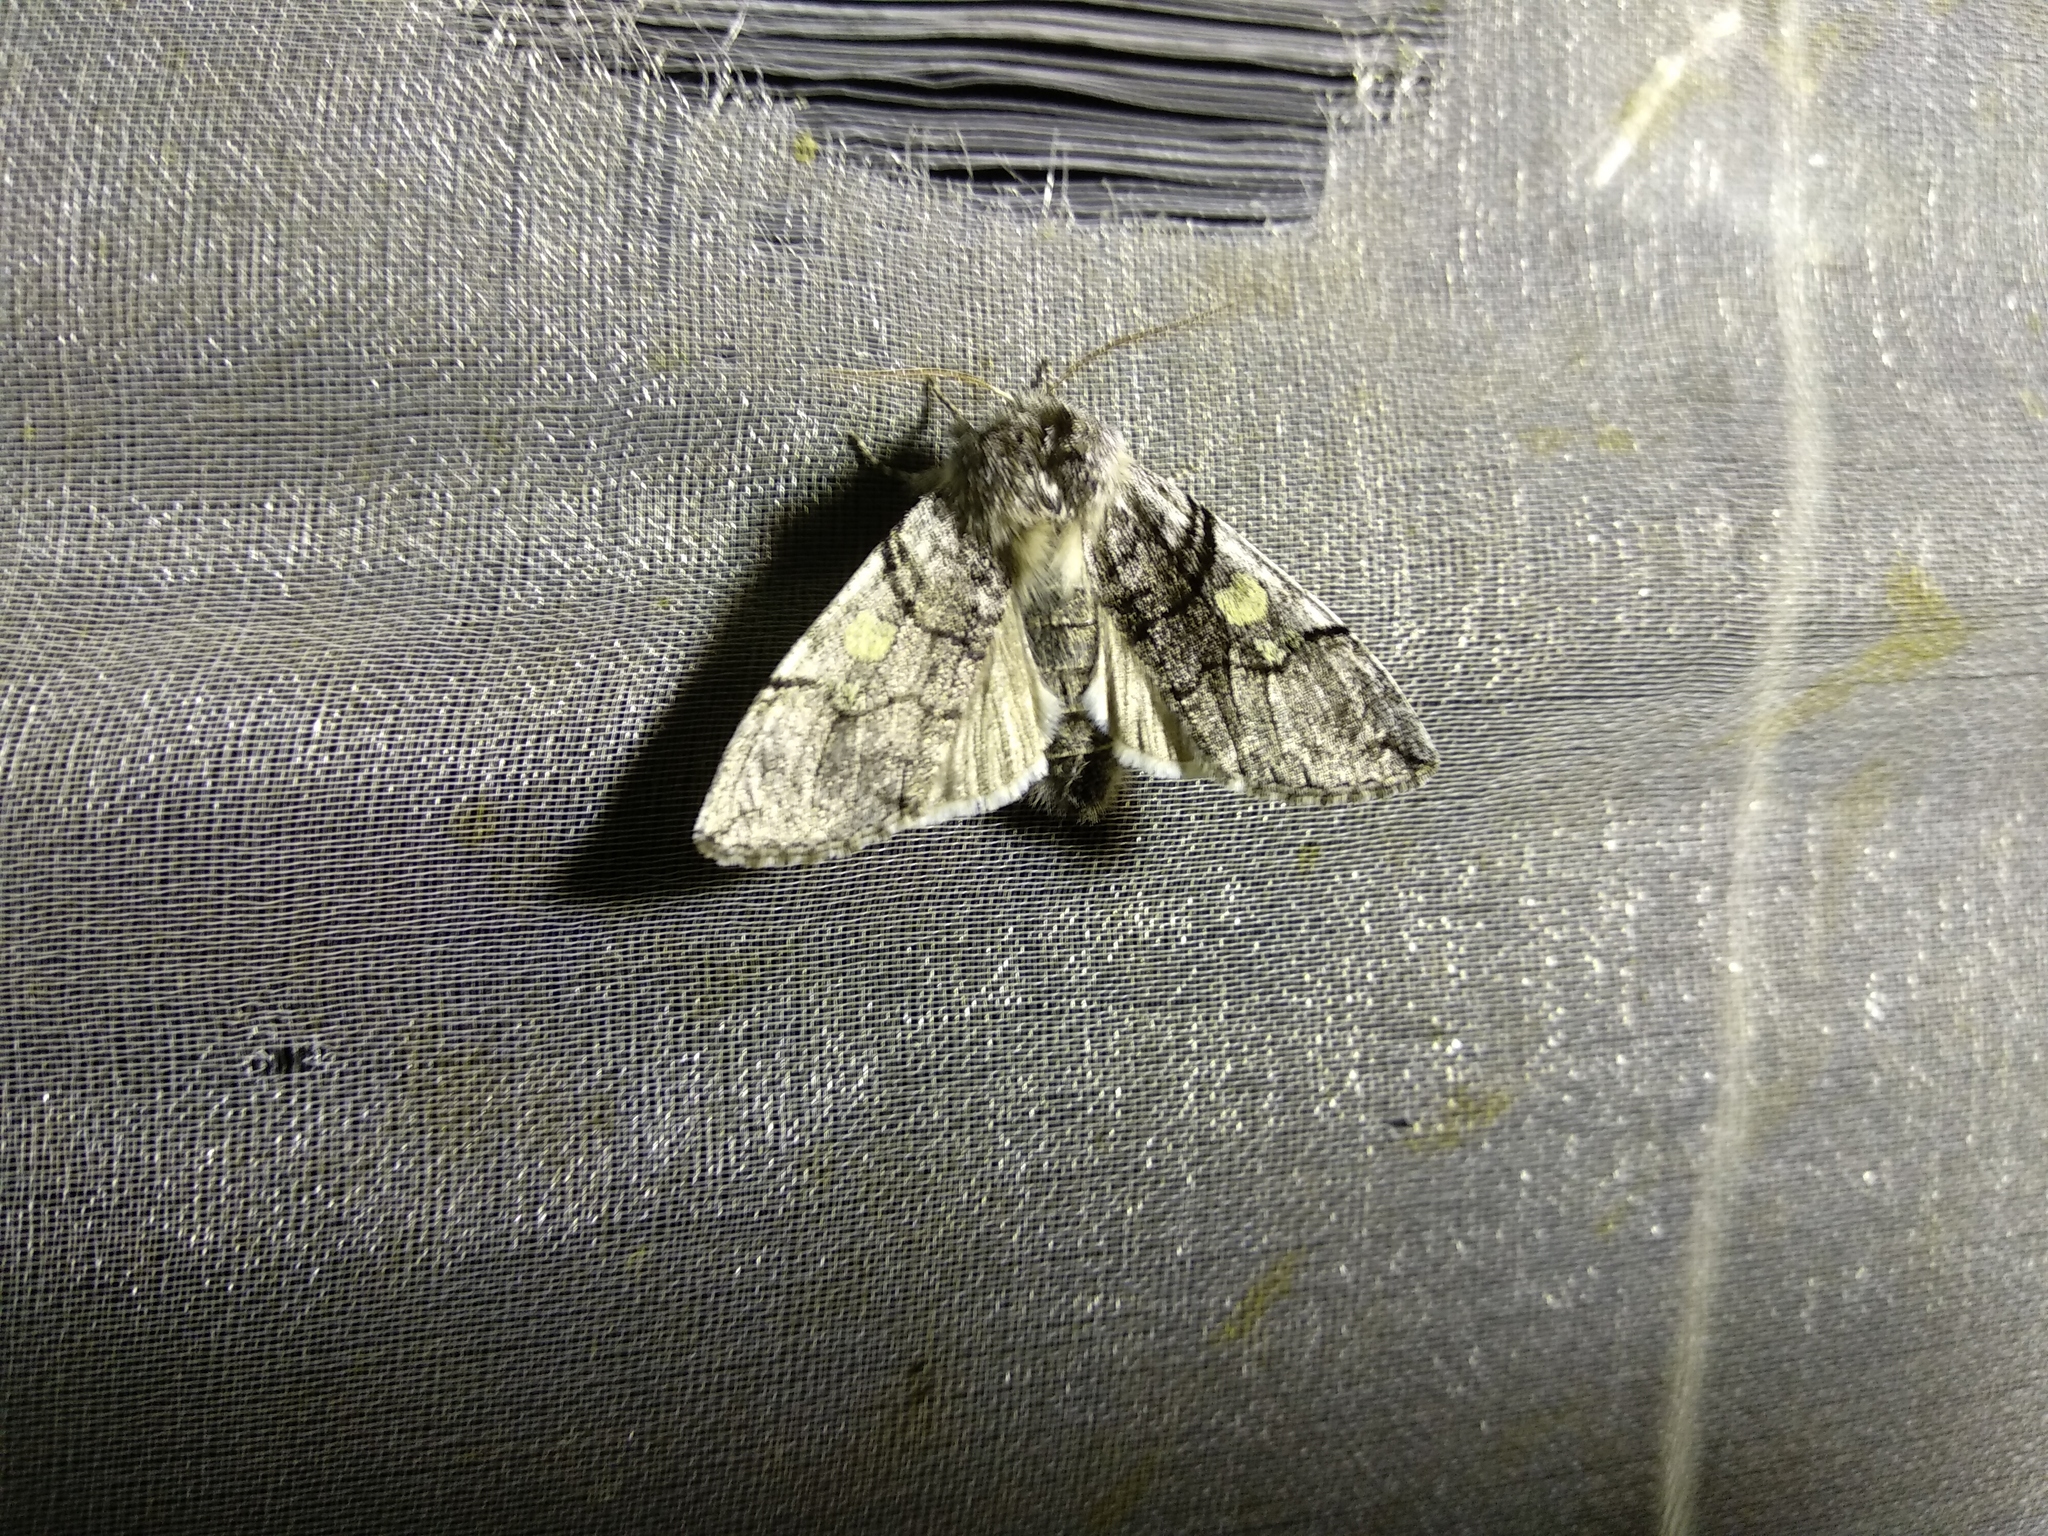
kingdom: Animalia
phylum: Arthropoda
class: Insecta
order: Lepidoptera
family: Drepanidae
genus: Achlya
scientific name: Achlya flavicornis
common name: Yellow horned
